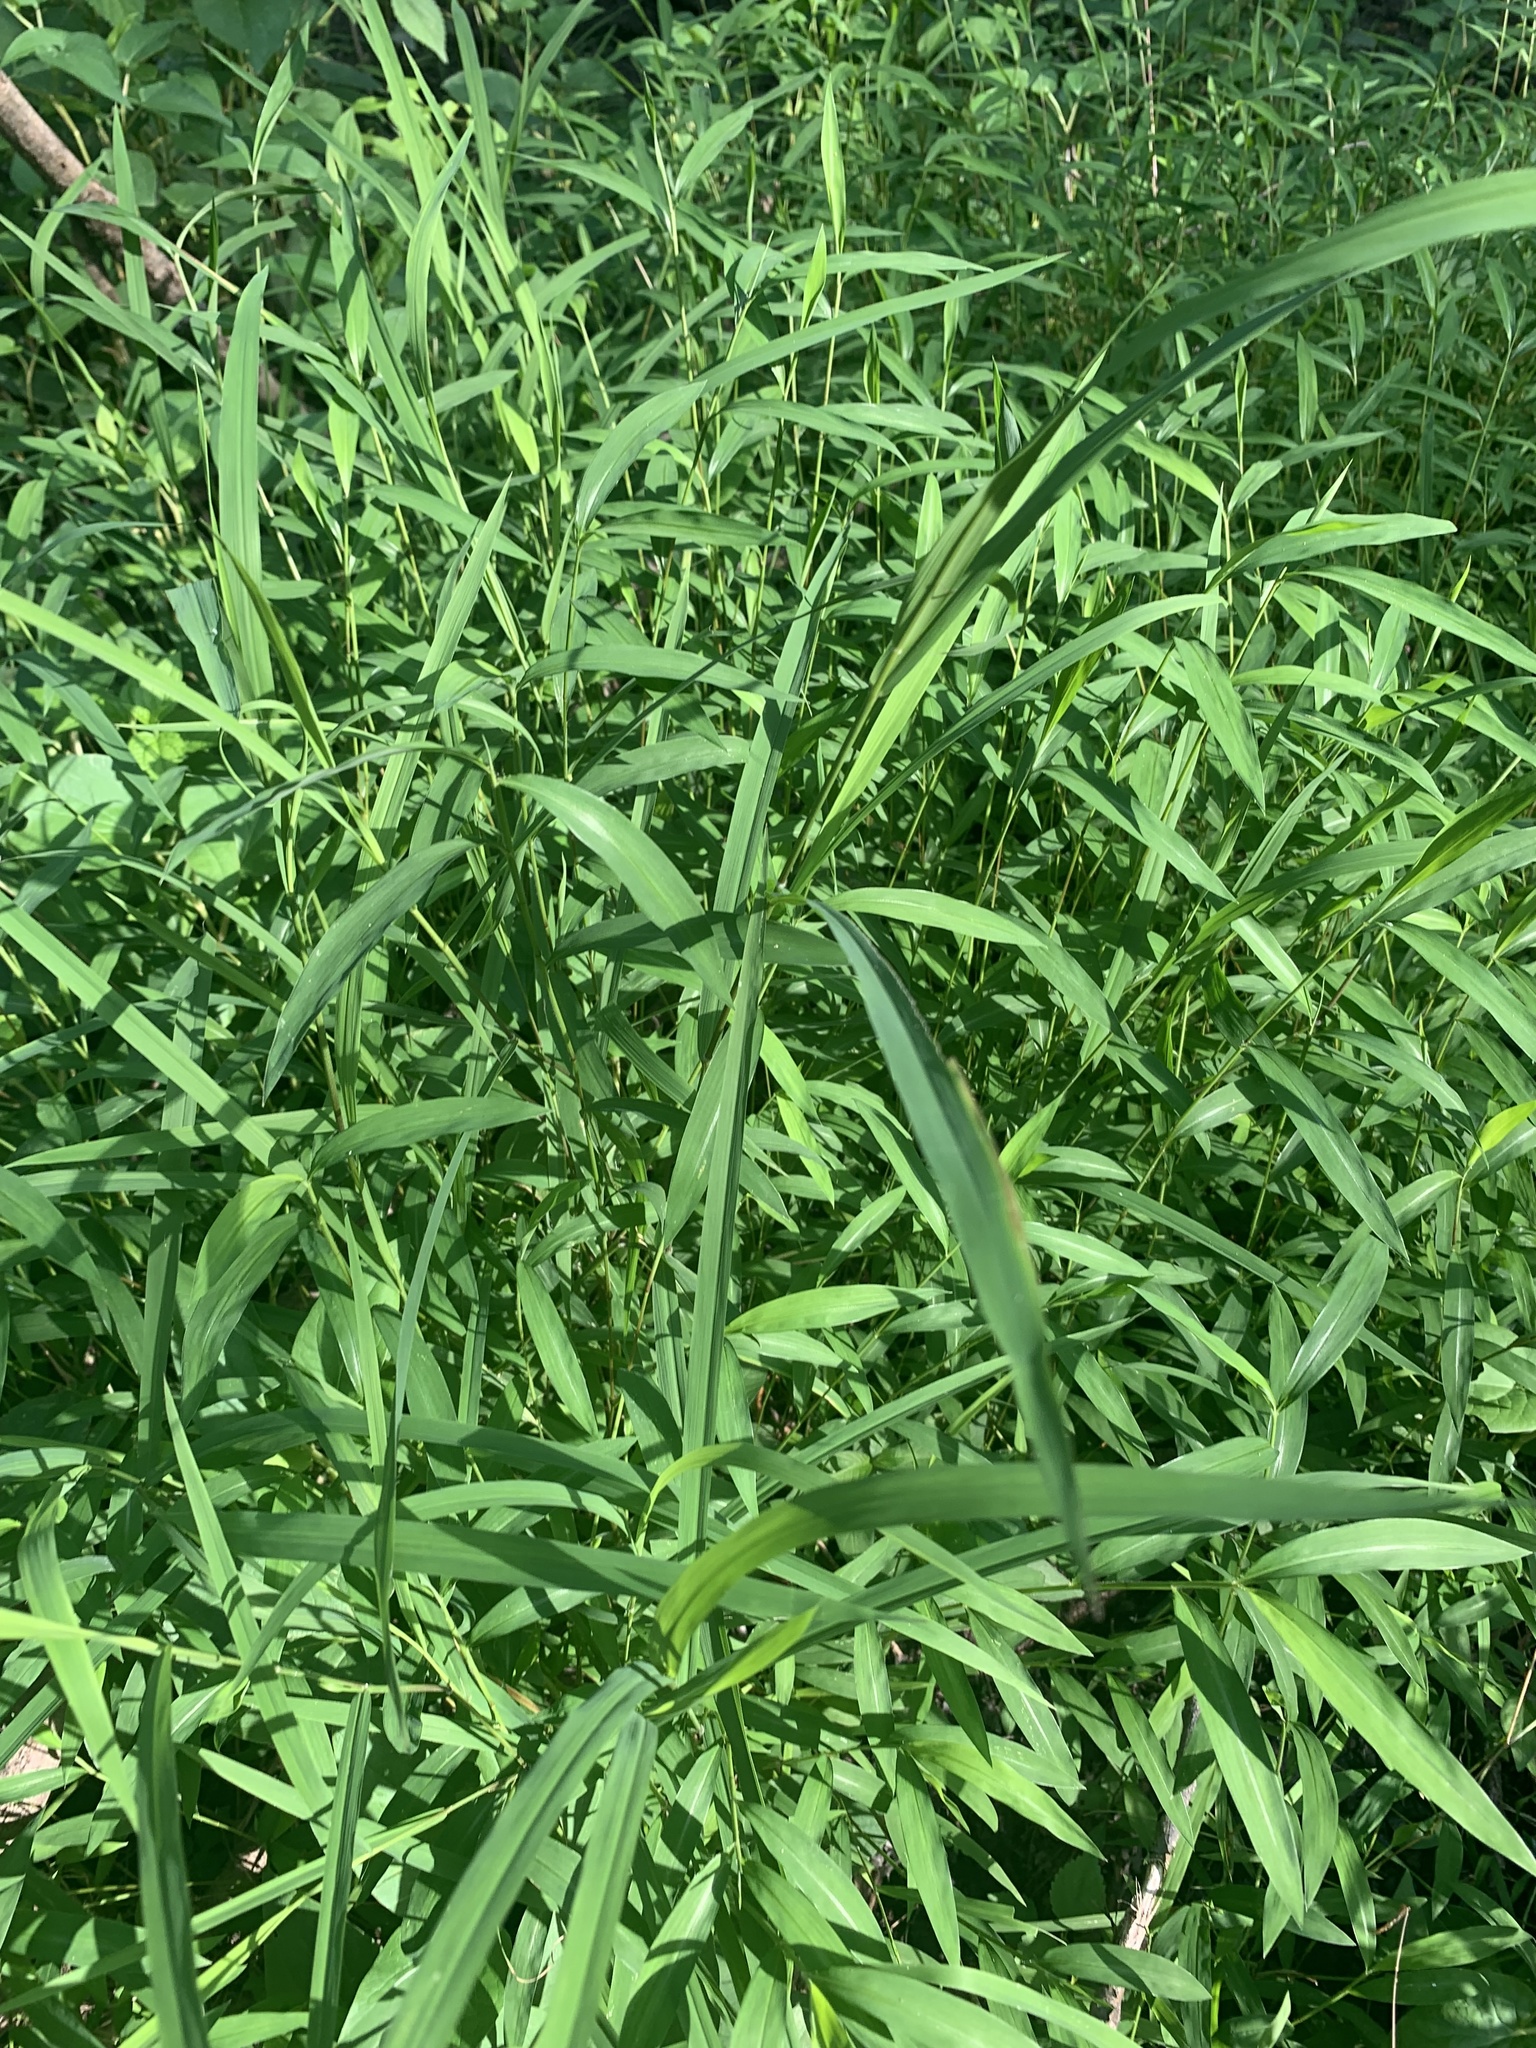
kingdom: Plantae
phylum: Tracheophyta
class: Liliopsida
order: Poales
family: Poaceae
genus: Microstegium
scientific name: Microstegium vimineum
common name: Japanese stiltgrass
